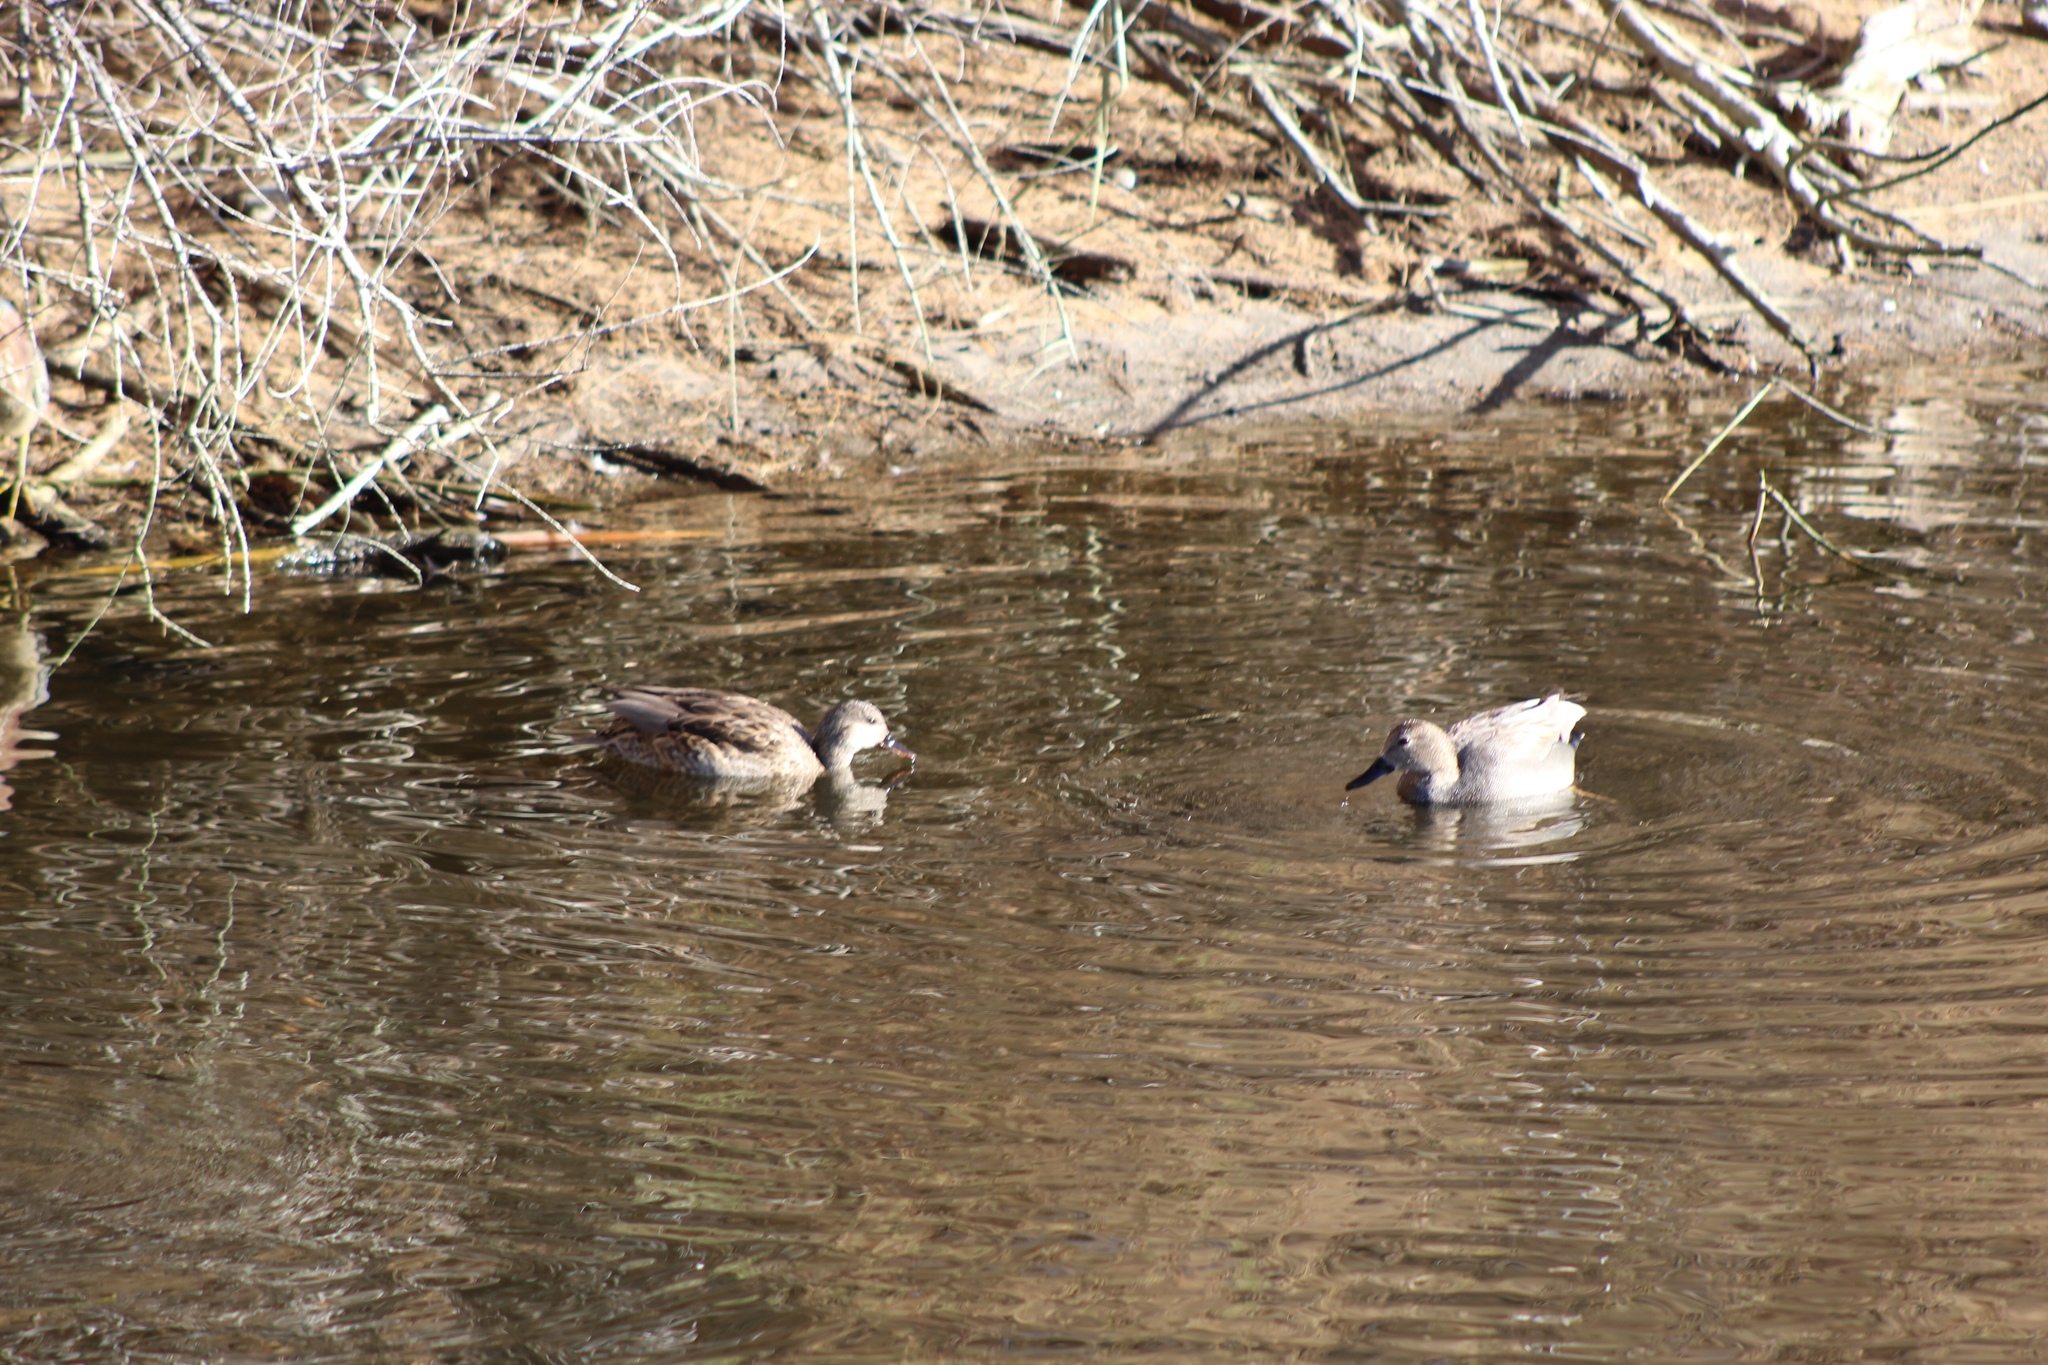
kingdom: Animalia
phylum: Chordata
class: Aves
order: Anseriformes
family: Anatidae
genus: Mareca
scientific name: Mareca strepera
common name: Gadwall
